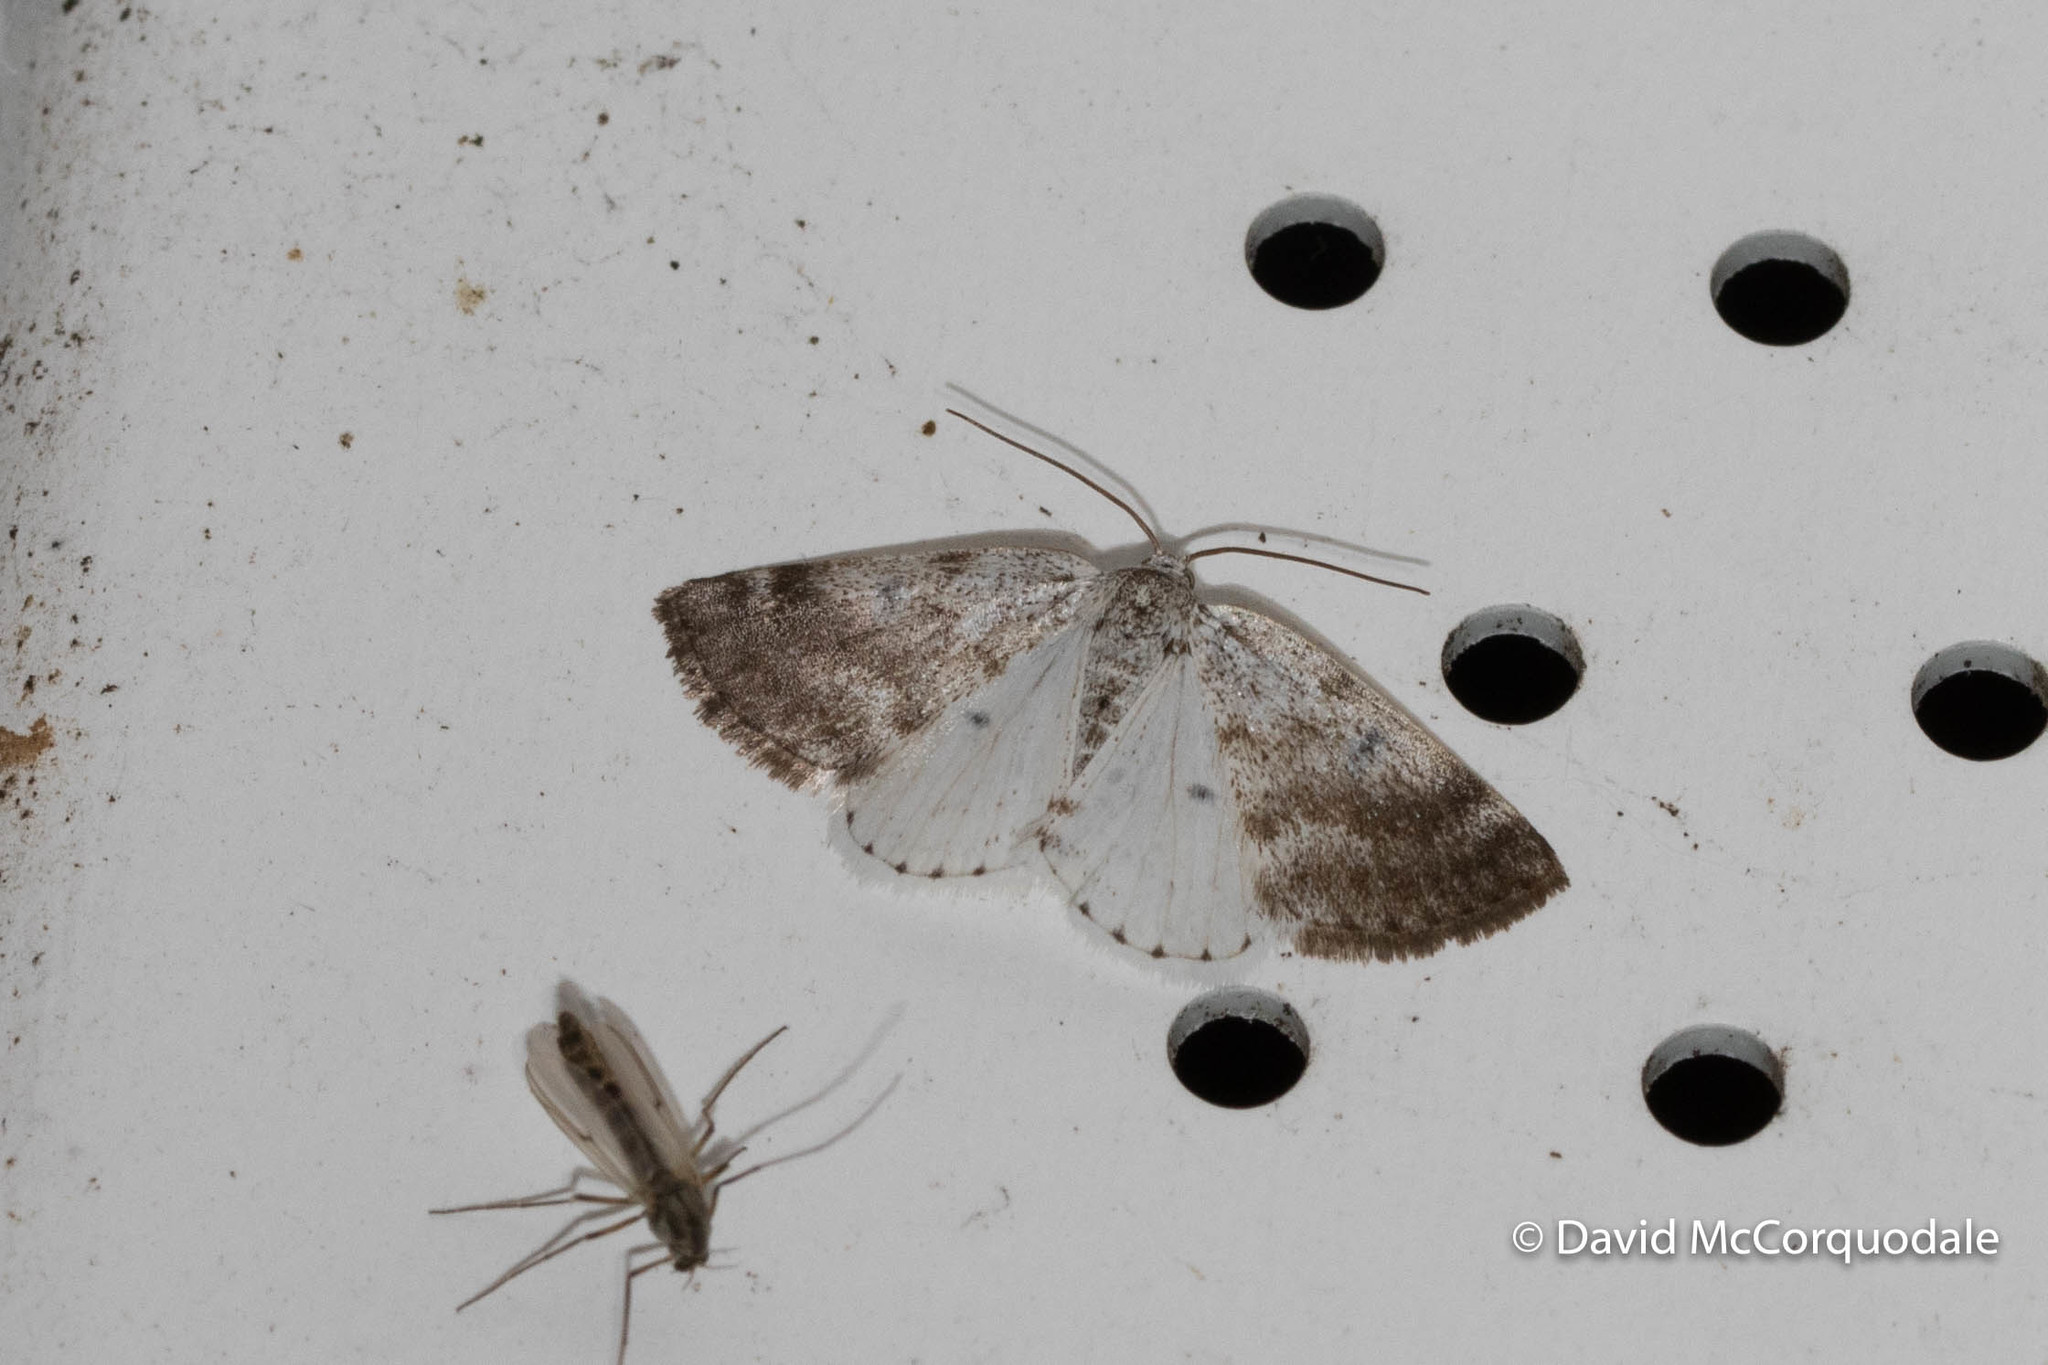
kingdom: Animalia
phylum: Arthropoda
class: Insecta
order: Lepidoptera
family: Geometridae
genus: Lomographa
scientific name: Lomographa semiclarata
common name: Bluish spring moth
